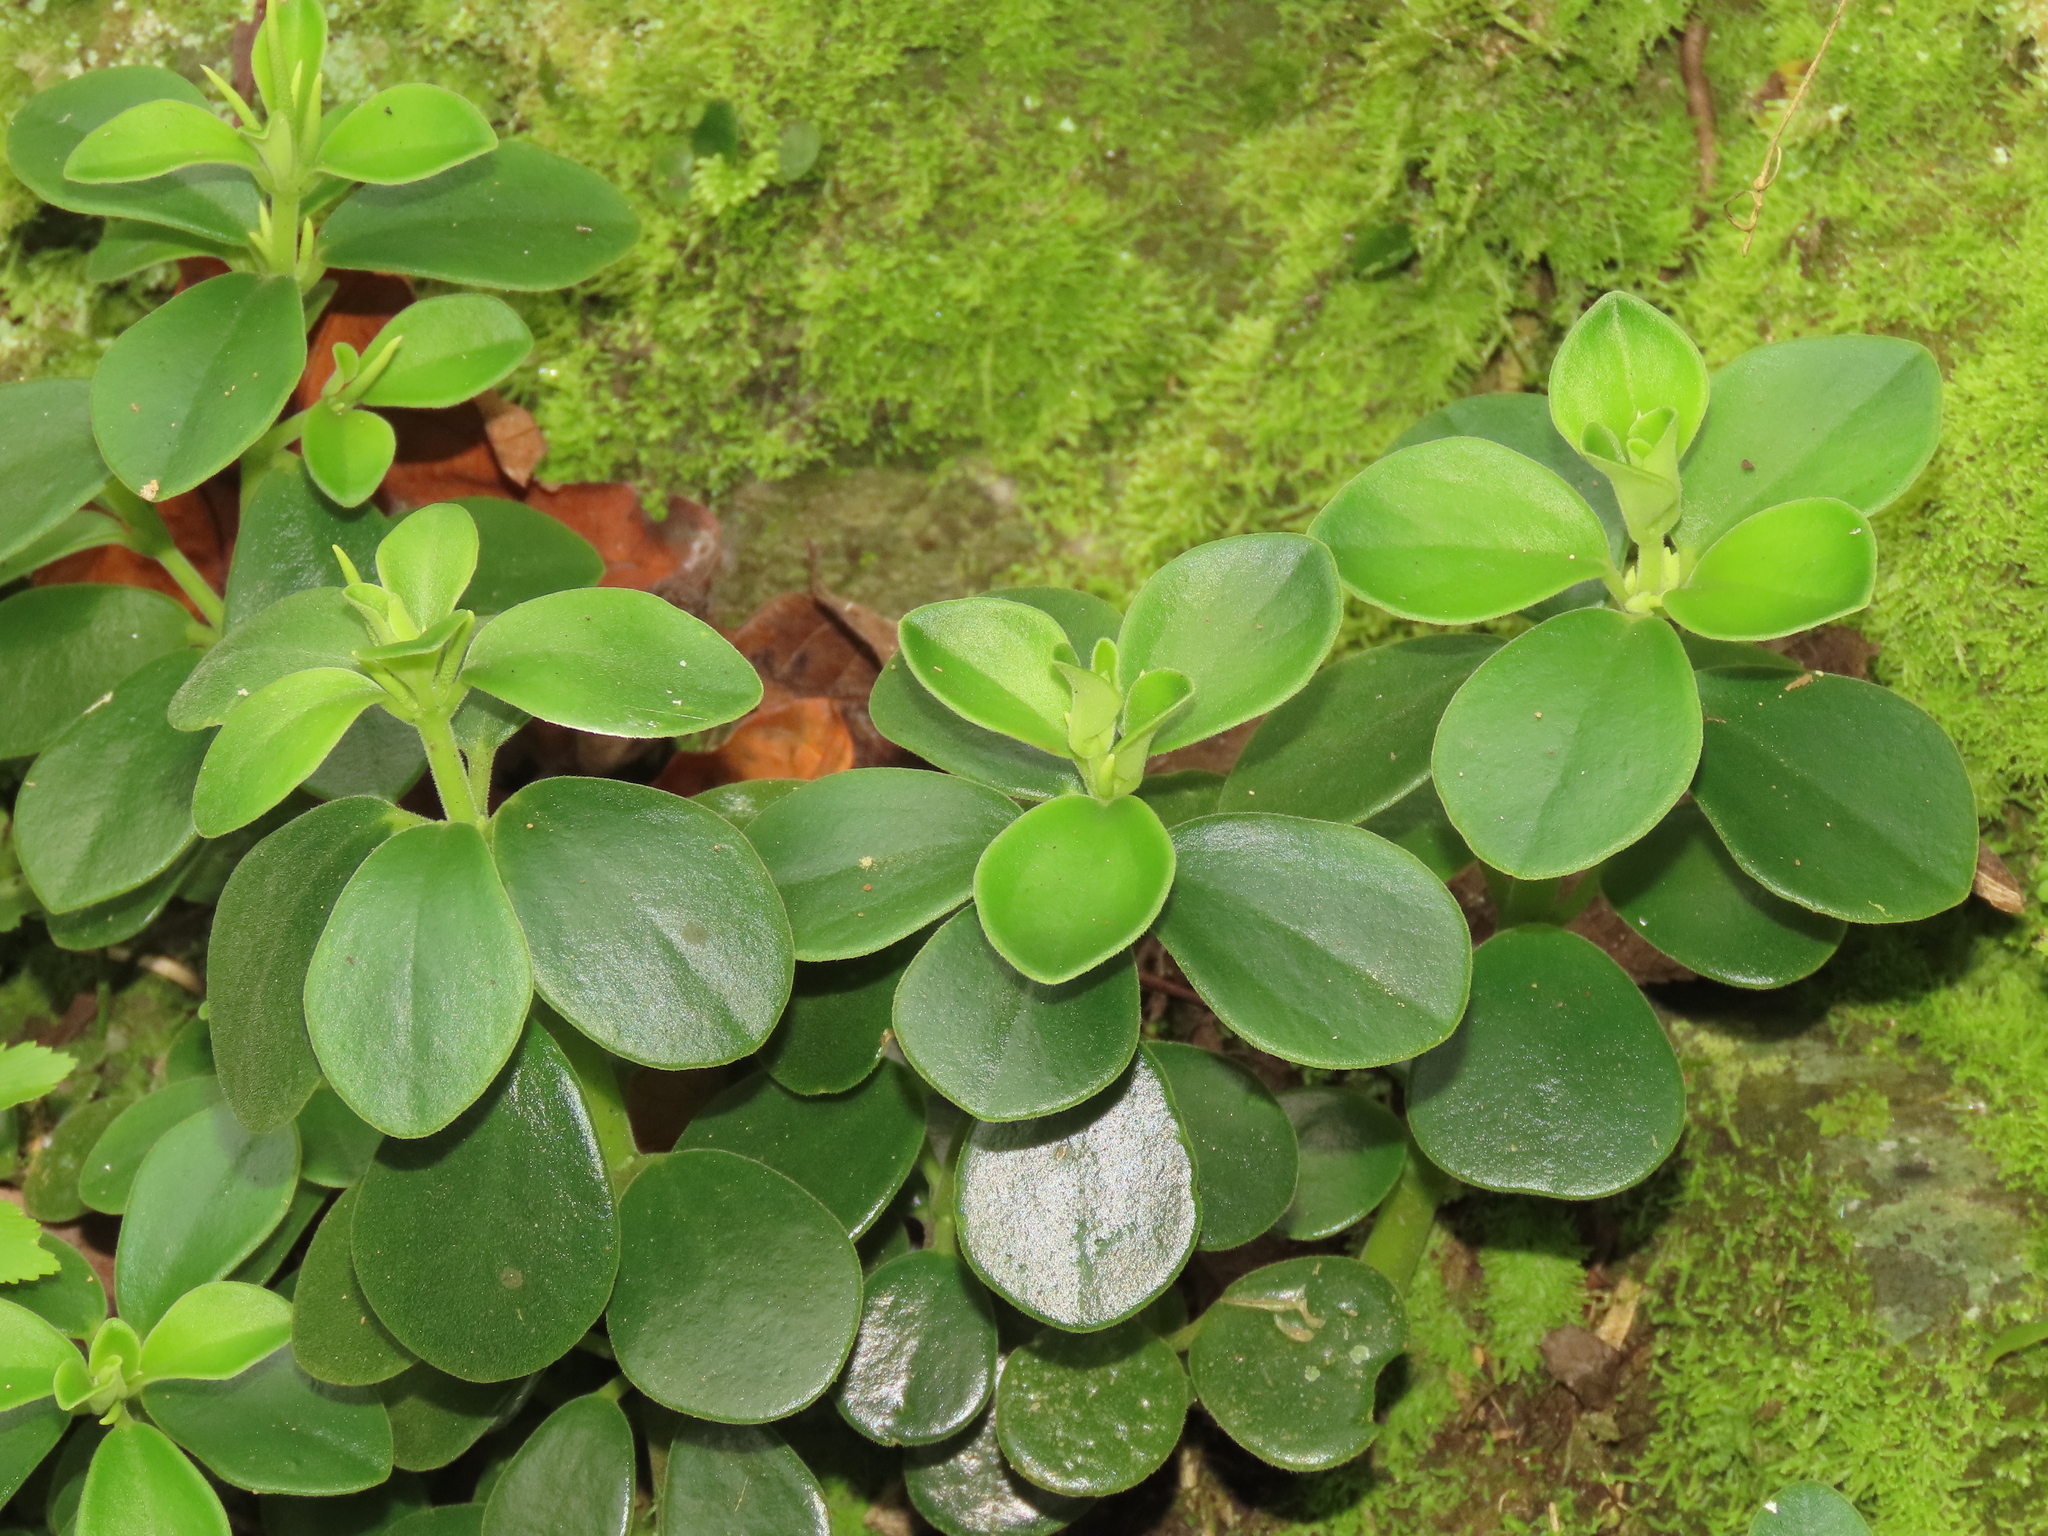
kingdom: Plantae
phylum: Tracheophyta
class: Magnoliopsida
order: Piperales
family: Piperaceae
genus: Peperomia
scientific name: Peperomia japonica
